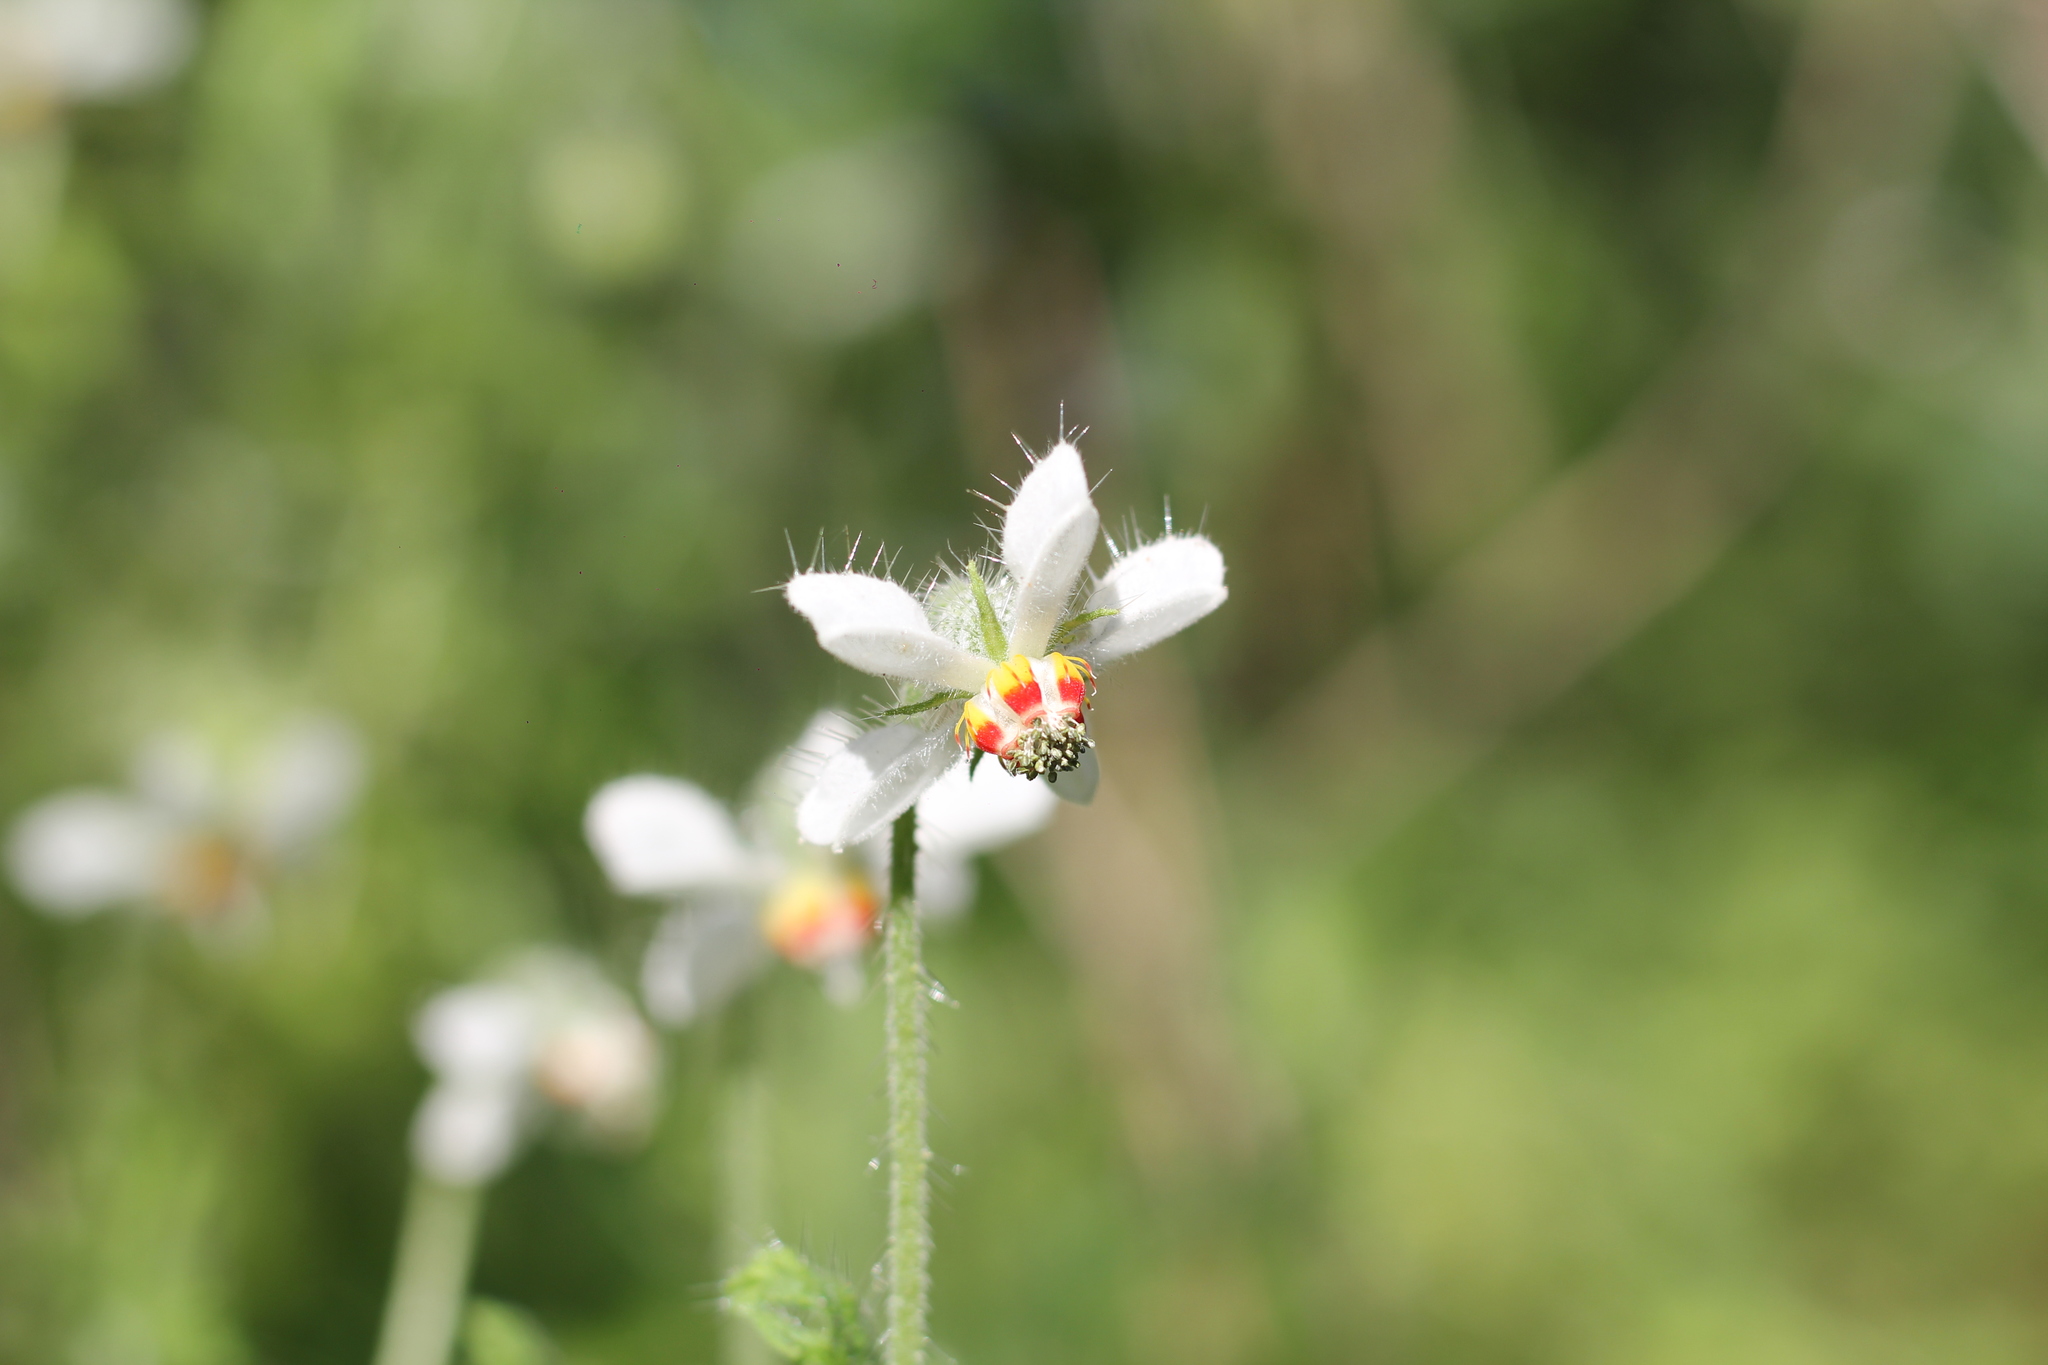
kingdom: Plantae
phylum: Tracheophyta
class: Magnoliopsida
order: Cornales
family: Loasaceae
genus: Blumenbachia
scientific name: Blumenbachia insignis
